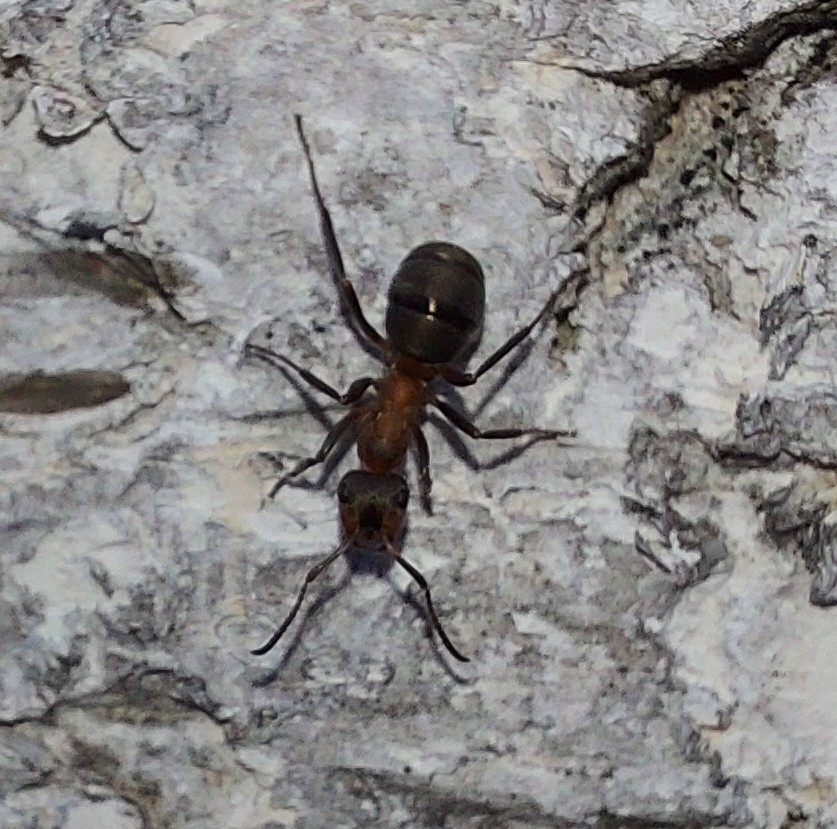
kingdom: Animalia
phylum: Arthropoda
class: Insecta
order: Hymenoptera
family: Formicidae
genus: Formica
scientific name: Formica rufa
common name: Red wood ant
